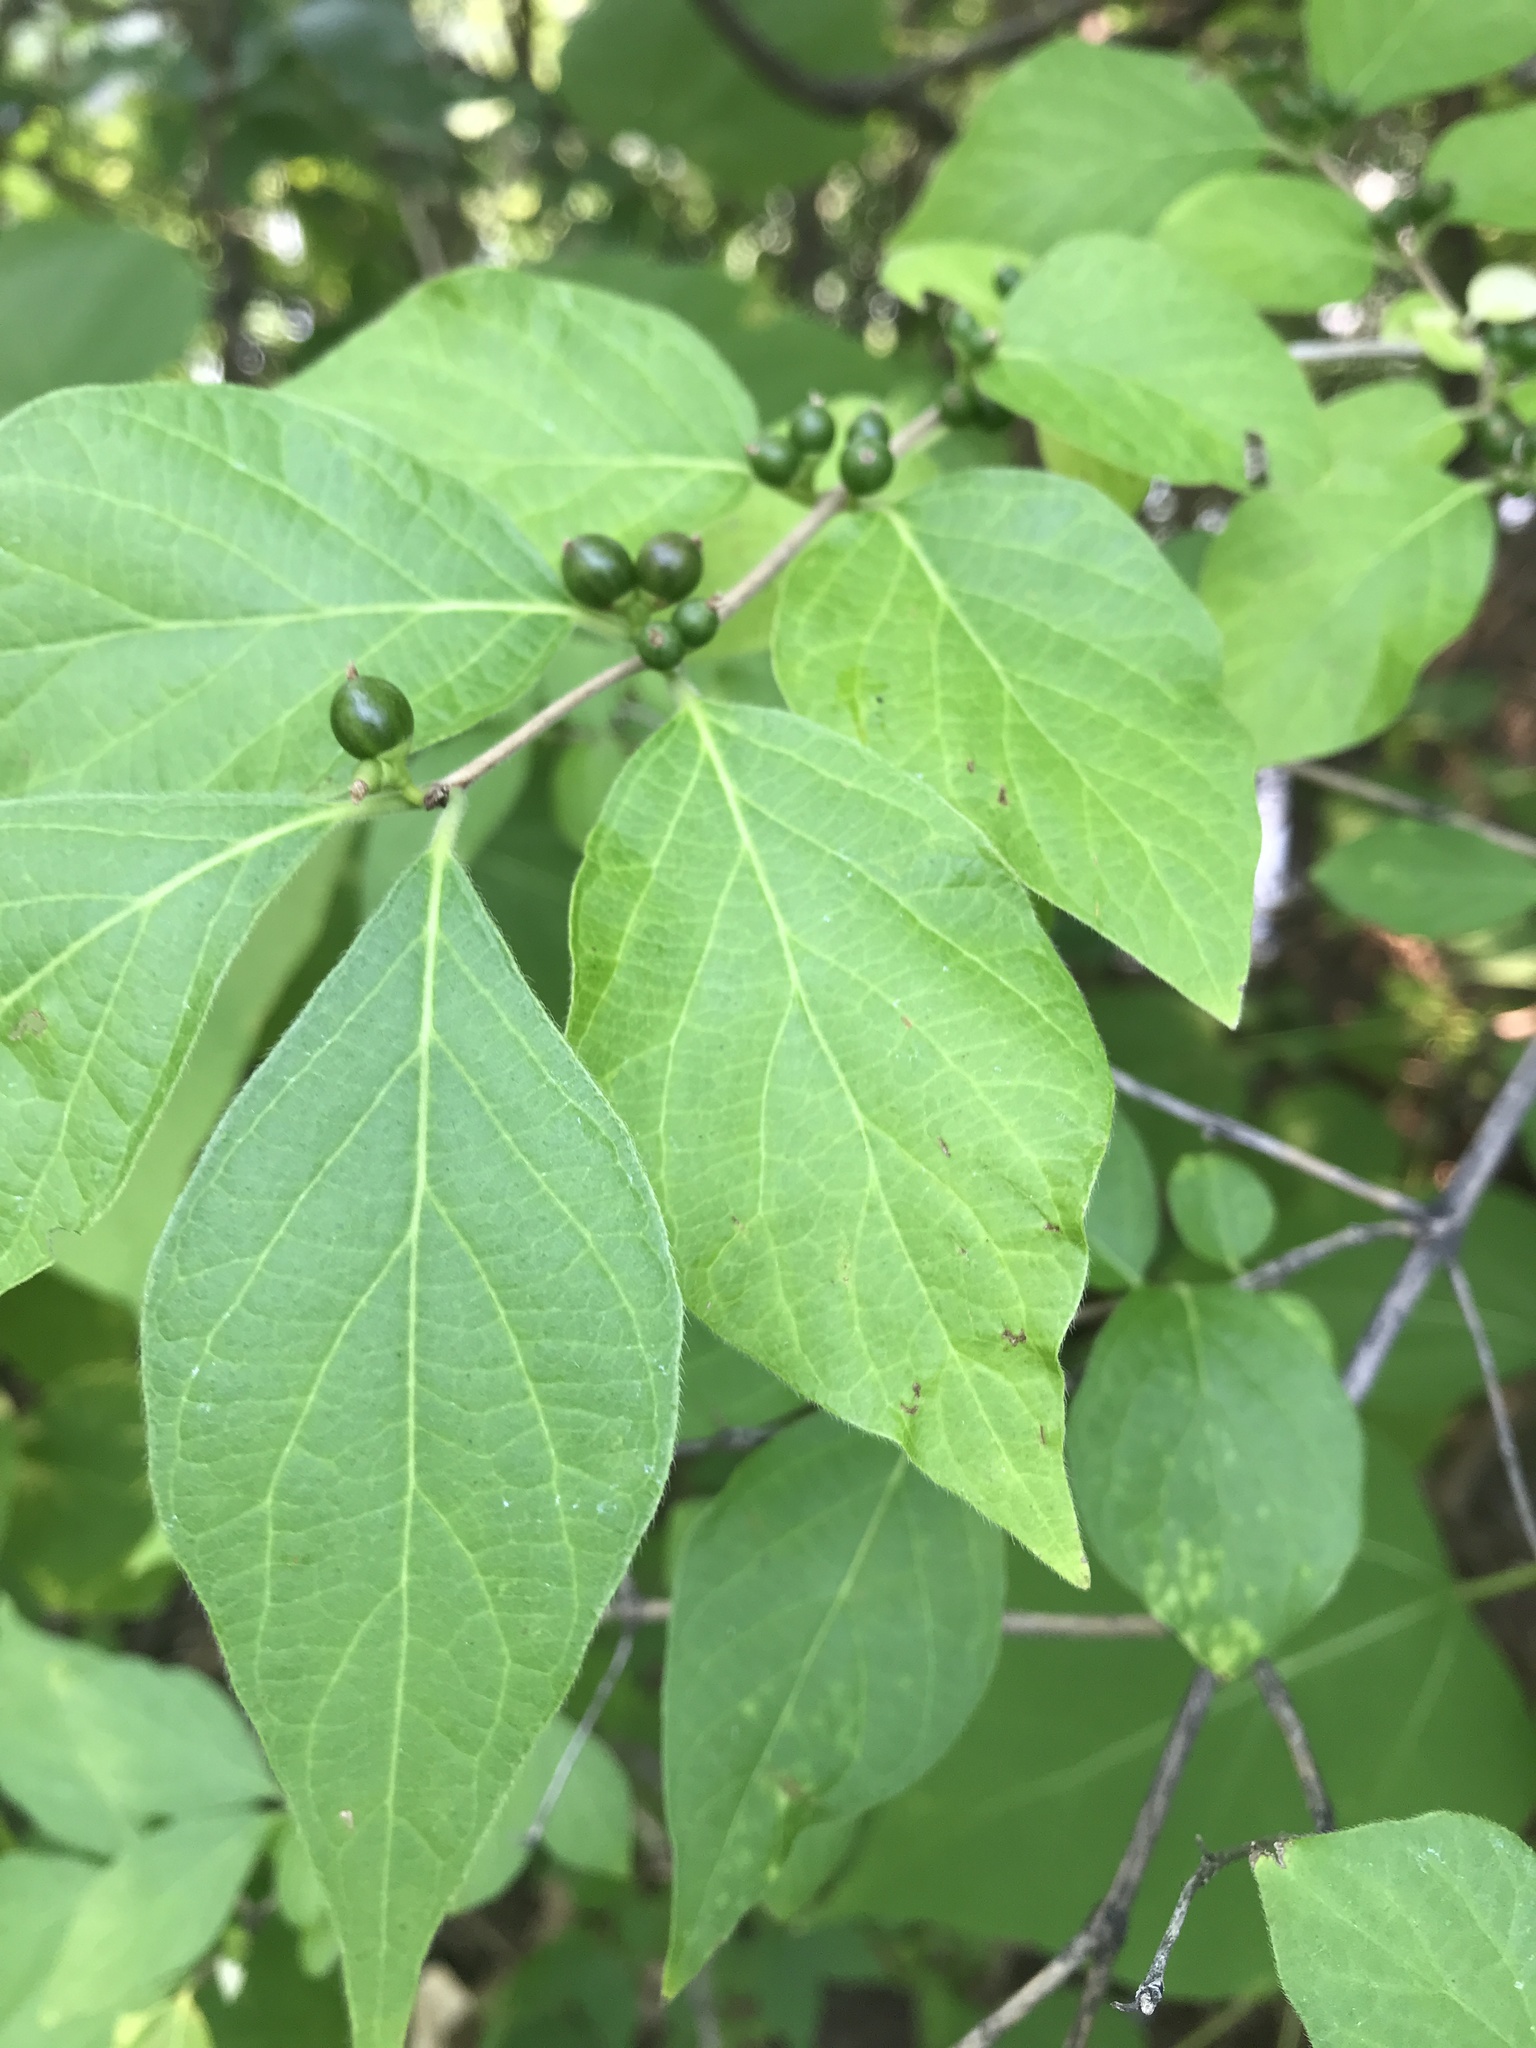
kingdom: Plantae
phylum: Tracheophyta
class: Magnoliopsida
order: Dipsacales
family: Caprifoliaceae
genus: Lonicera
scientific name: Lonicera maackii
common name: Amur honeysuckle
